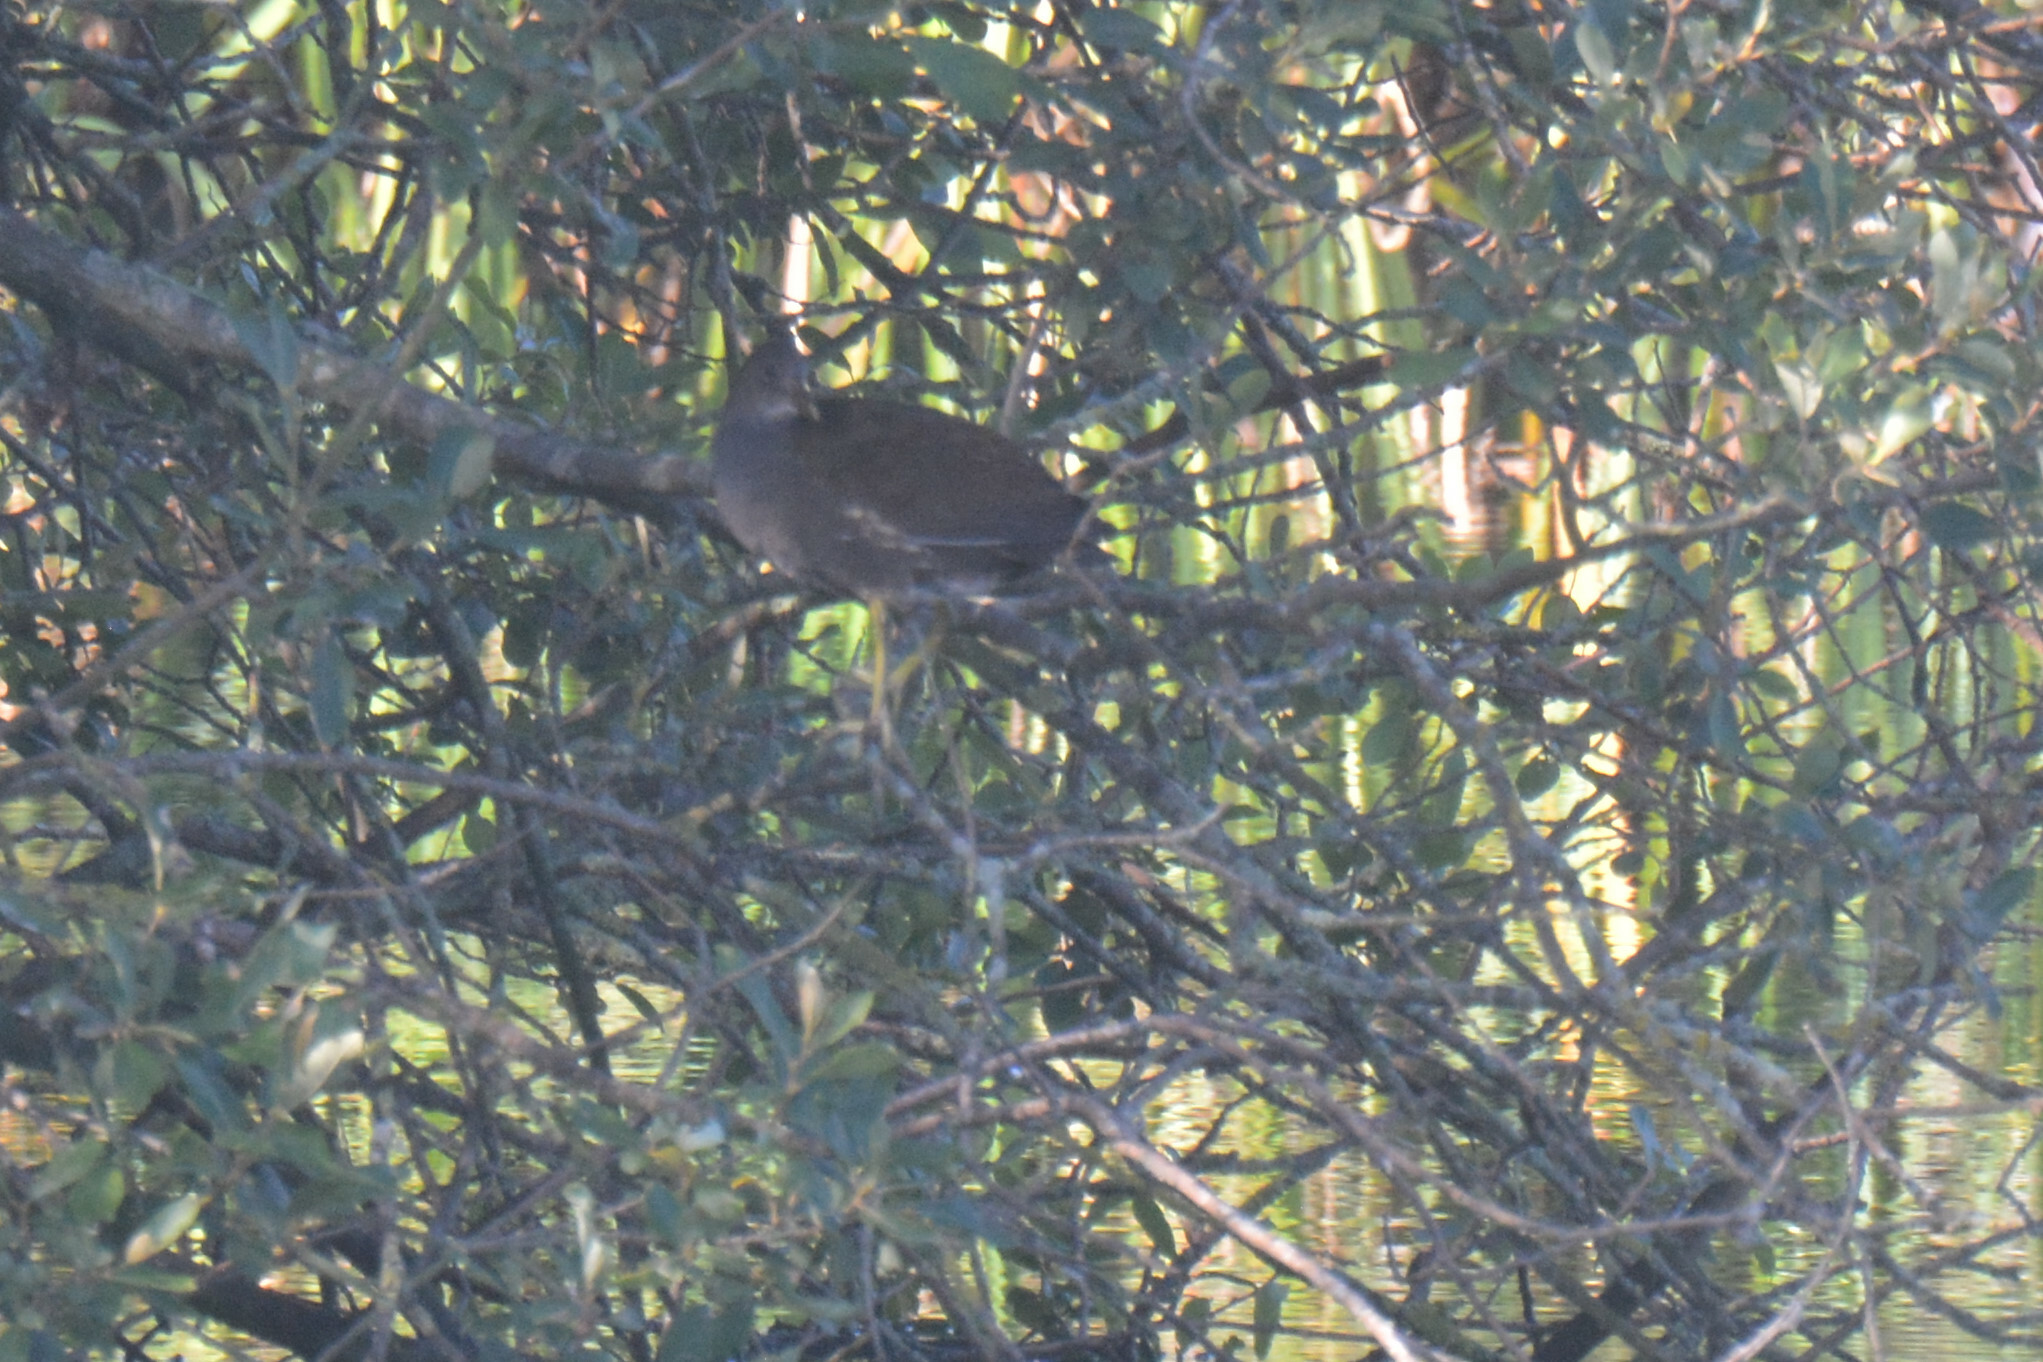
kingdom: Animalia
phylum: Chordata
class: Aves
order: Gruiformes
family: Rallidae
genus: Gallinula
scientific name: Gallinula chloropus
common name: Common moorhen
